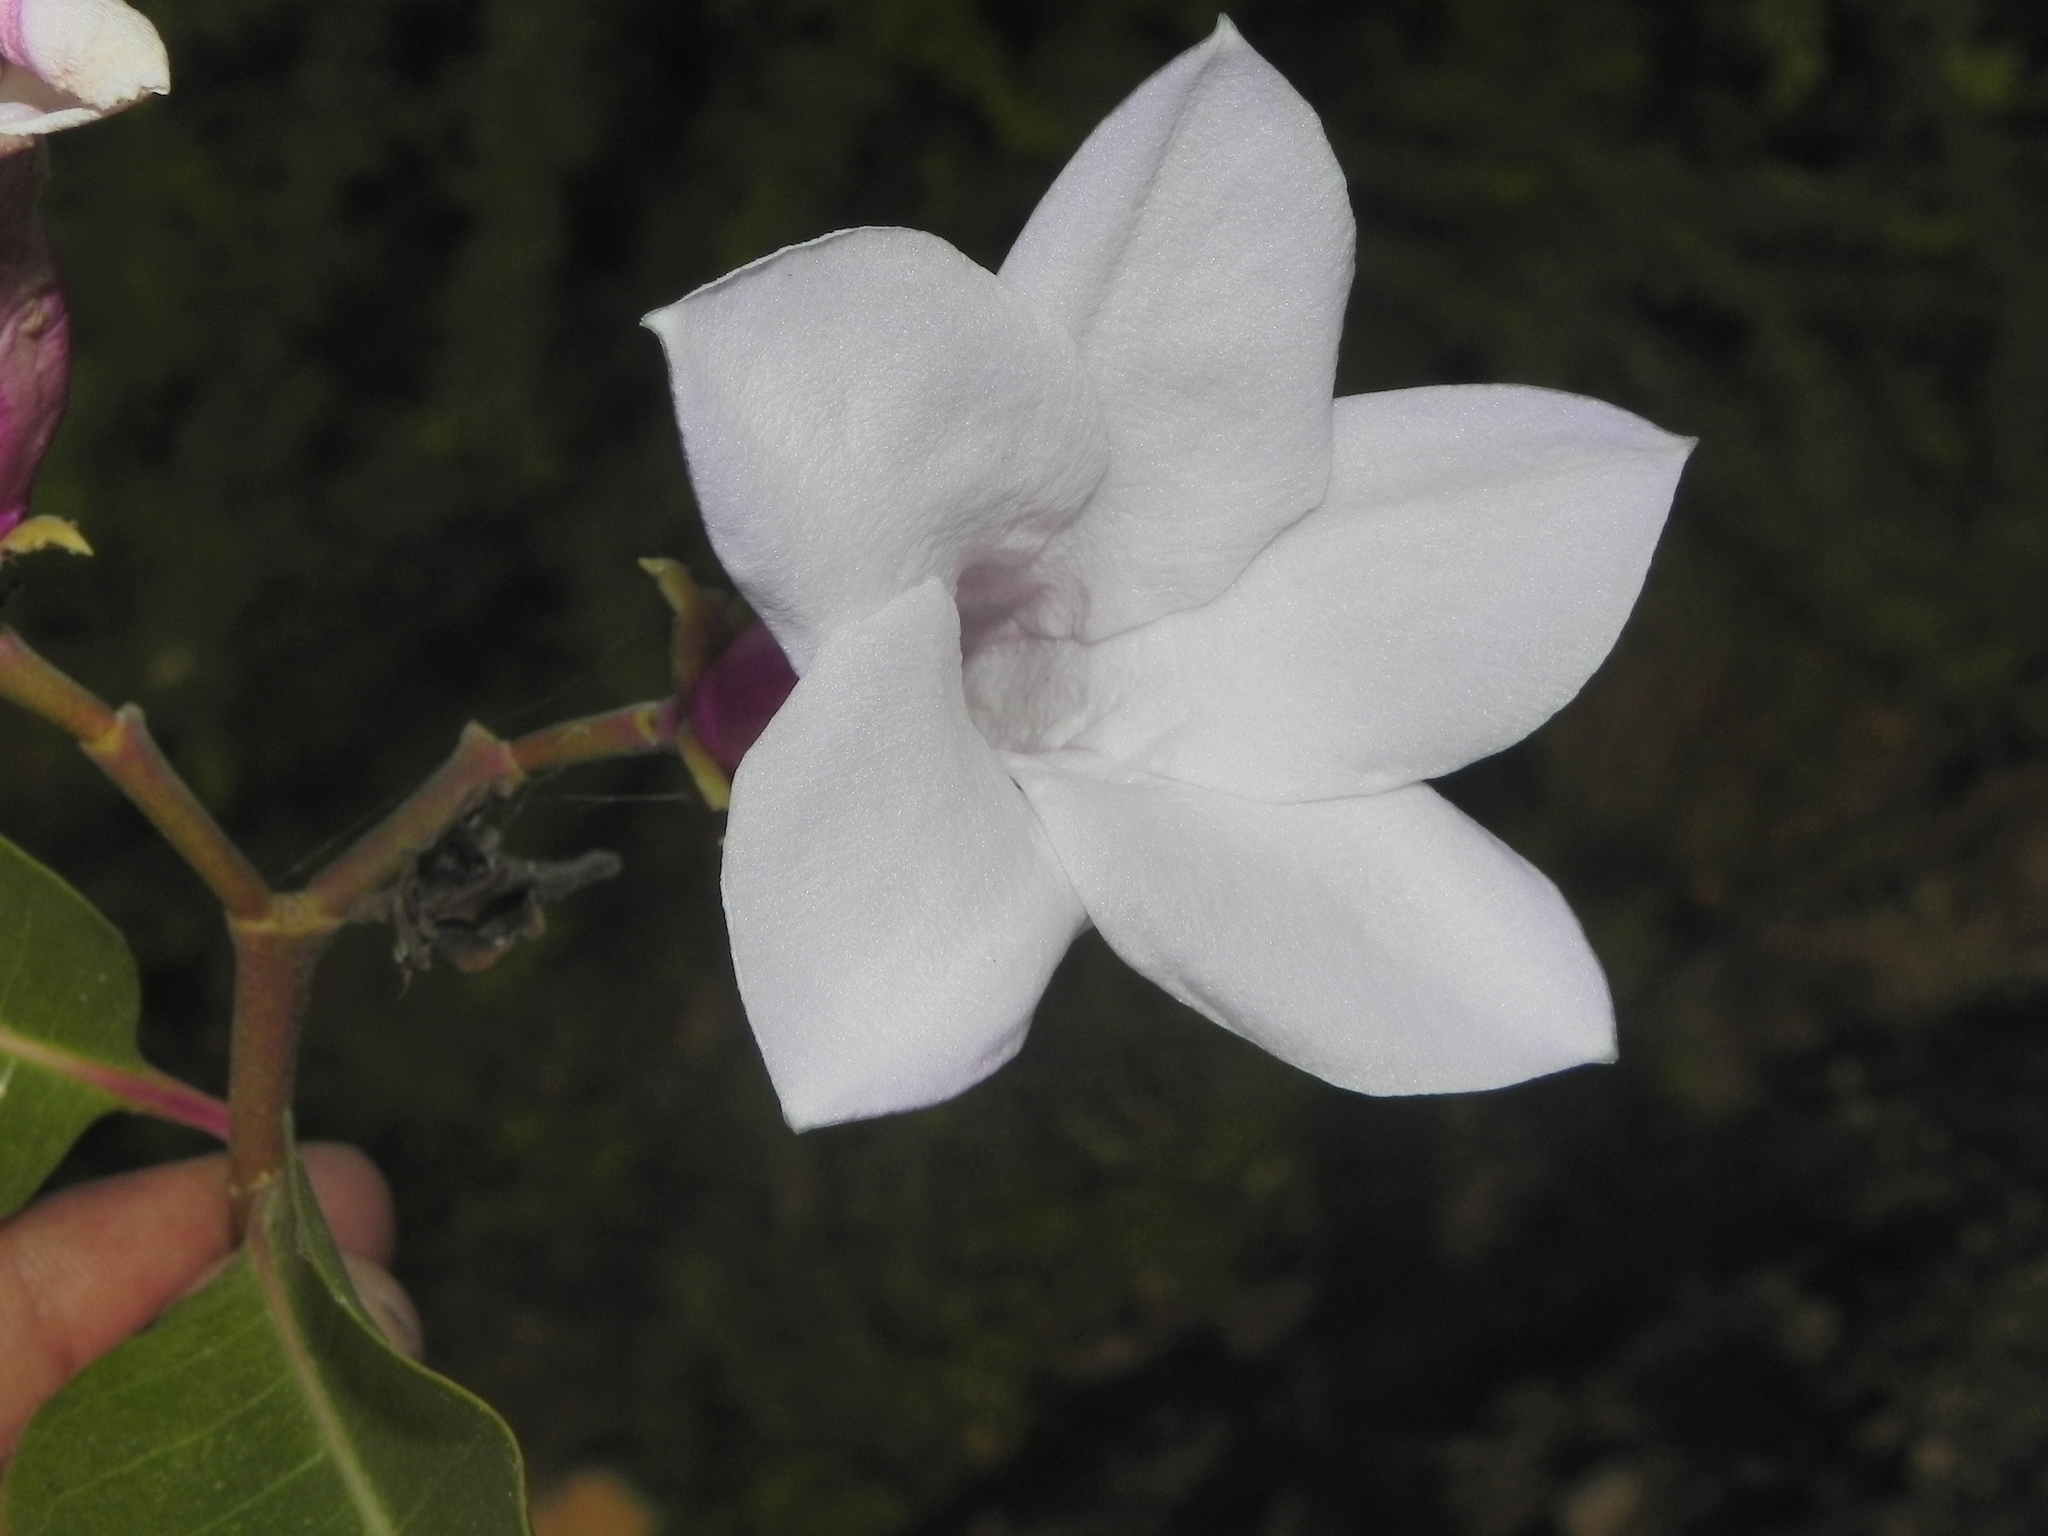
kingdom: Plantae
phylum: Tracheophyta
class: Magnoliopsida
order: Gentianales
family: Apocynaceae
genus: Cryptostegia
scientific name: Cryptostegia grandiflora
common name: Palay rubbervine
